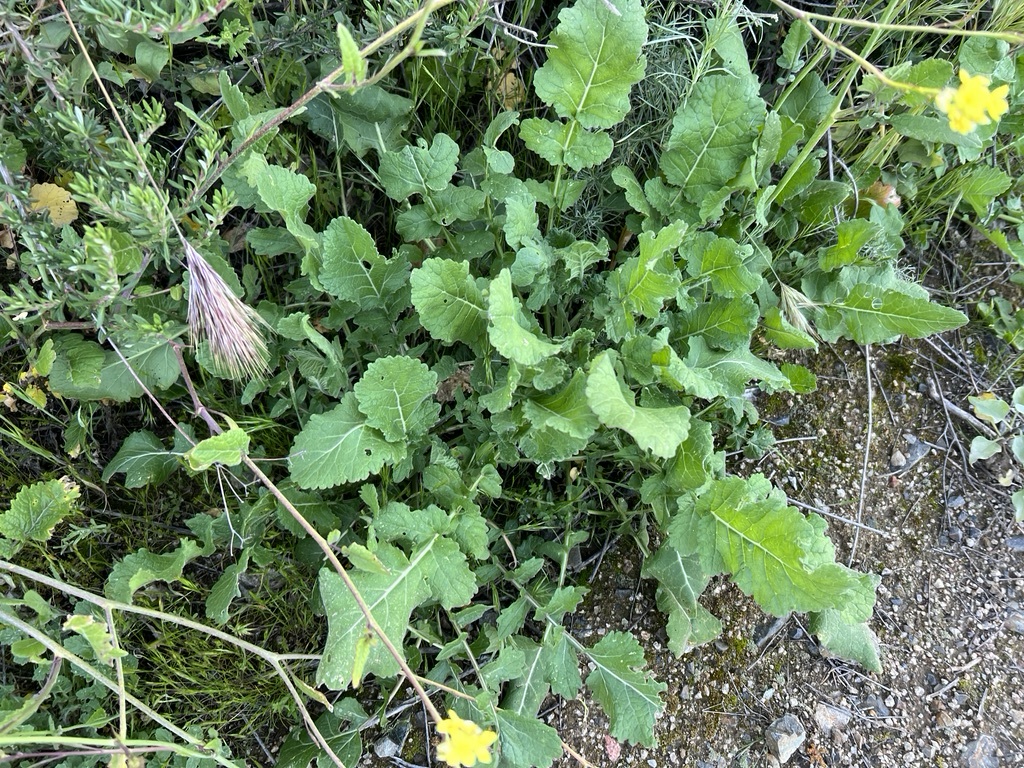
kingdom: Plantae
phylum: Tracheophyta
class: Magnoliopsida
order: Brassicales
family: Brassicaceae
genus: Hirschfeldia
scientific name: Hirschfeldia incana
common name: Hoary mustard
